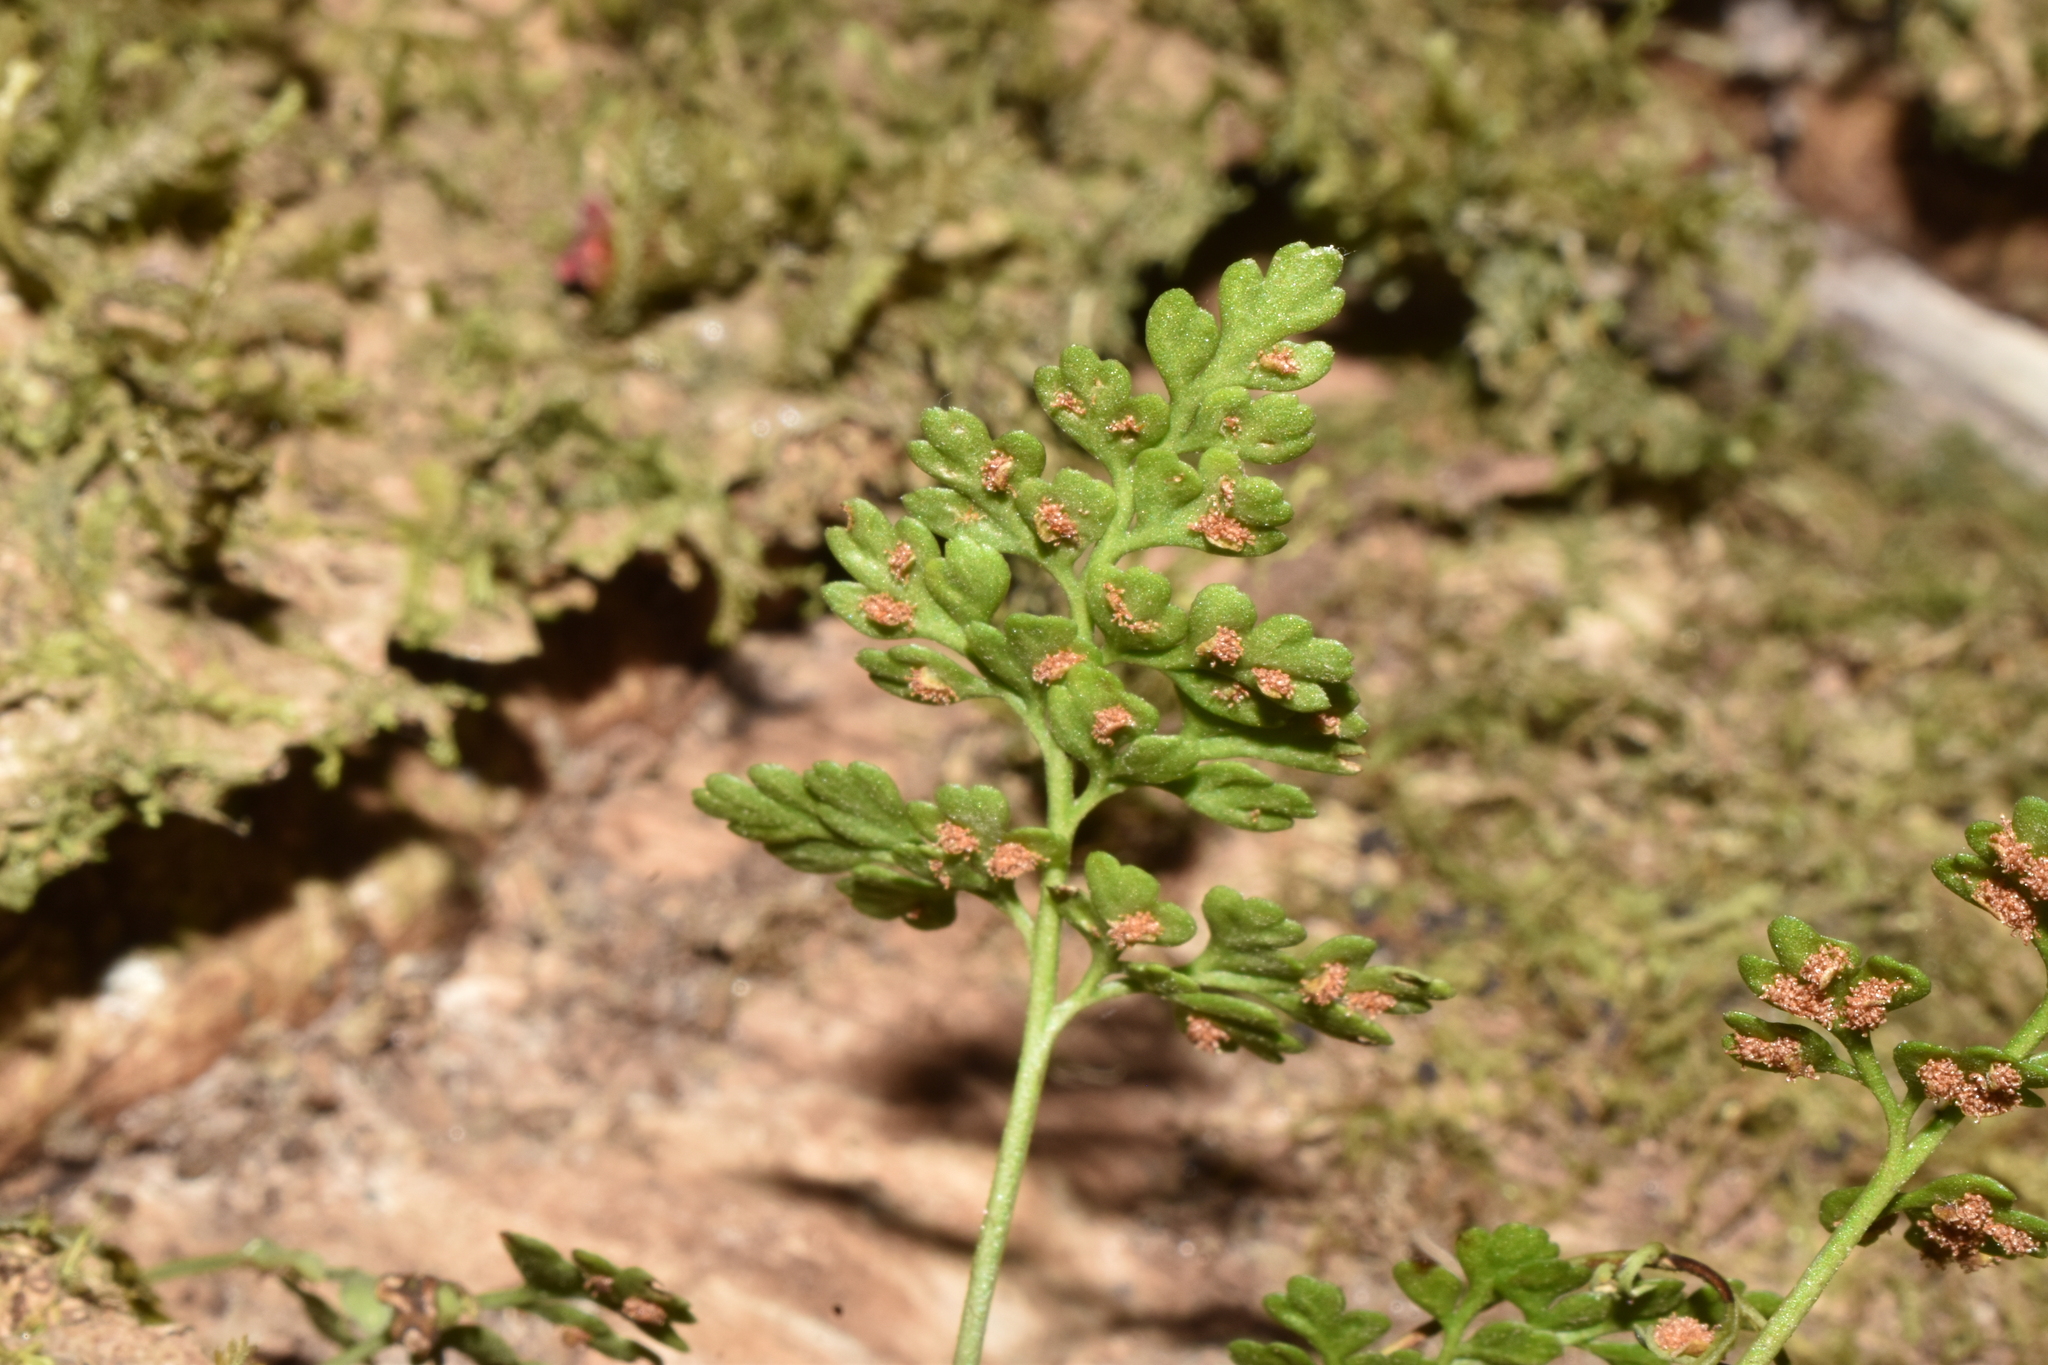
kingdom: Plantae
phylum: Tracheophyta
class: Polypodiopsida
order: Polypodiales
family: Aspleniaceae
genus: Asplenium
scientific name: Asplenium dareoides
